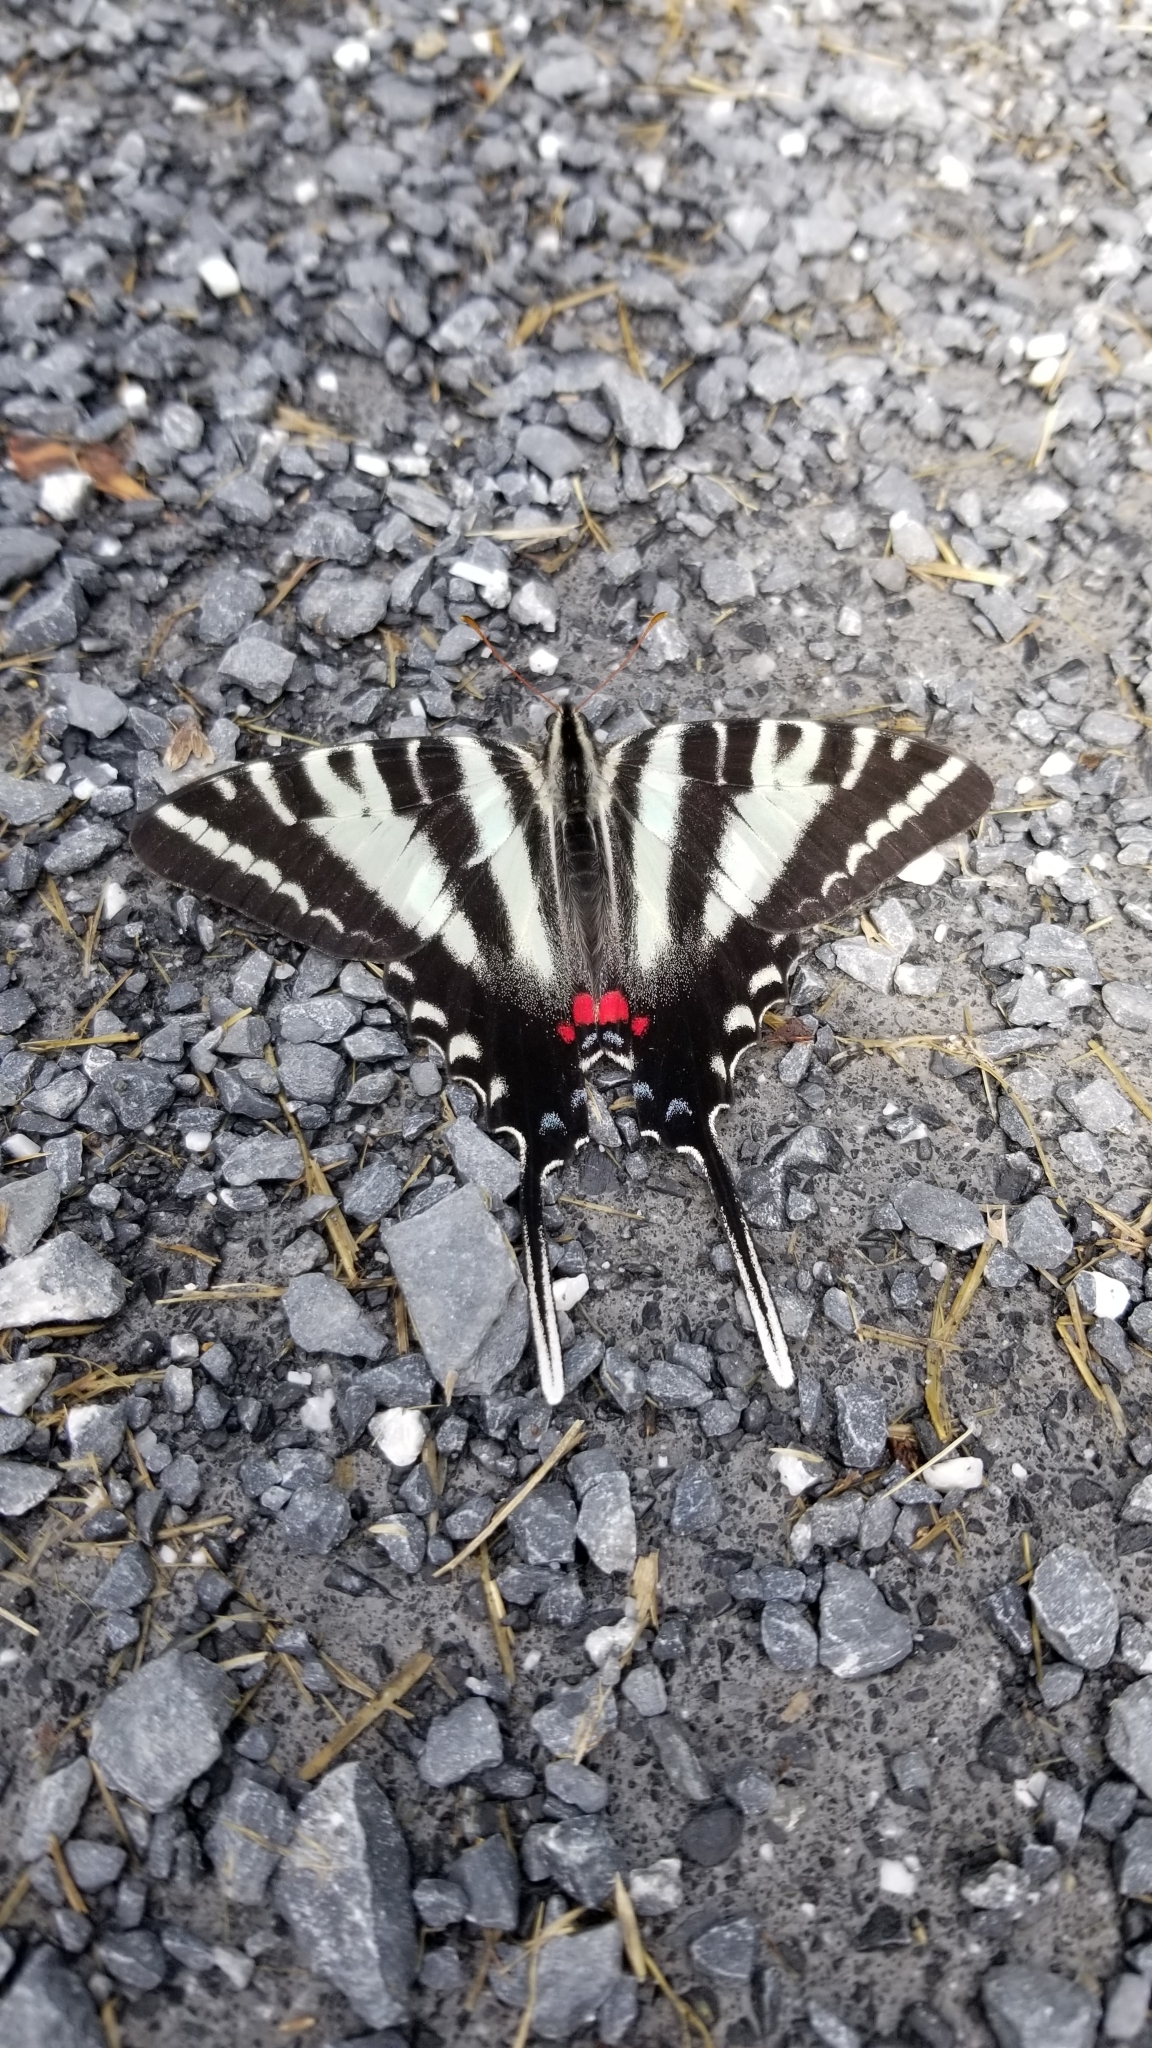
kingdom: Animalia
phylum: Arthropoda
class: Insecta
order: Lepidoptera
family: Papilionidae
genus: Protographium
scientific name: Protographium marcellus
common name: Zebra swallowtail
